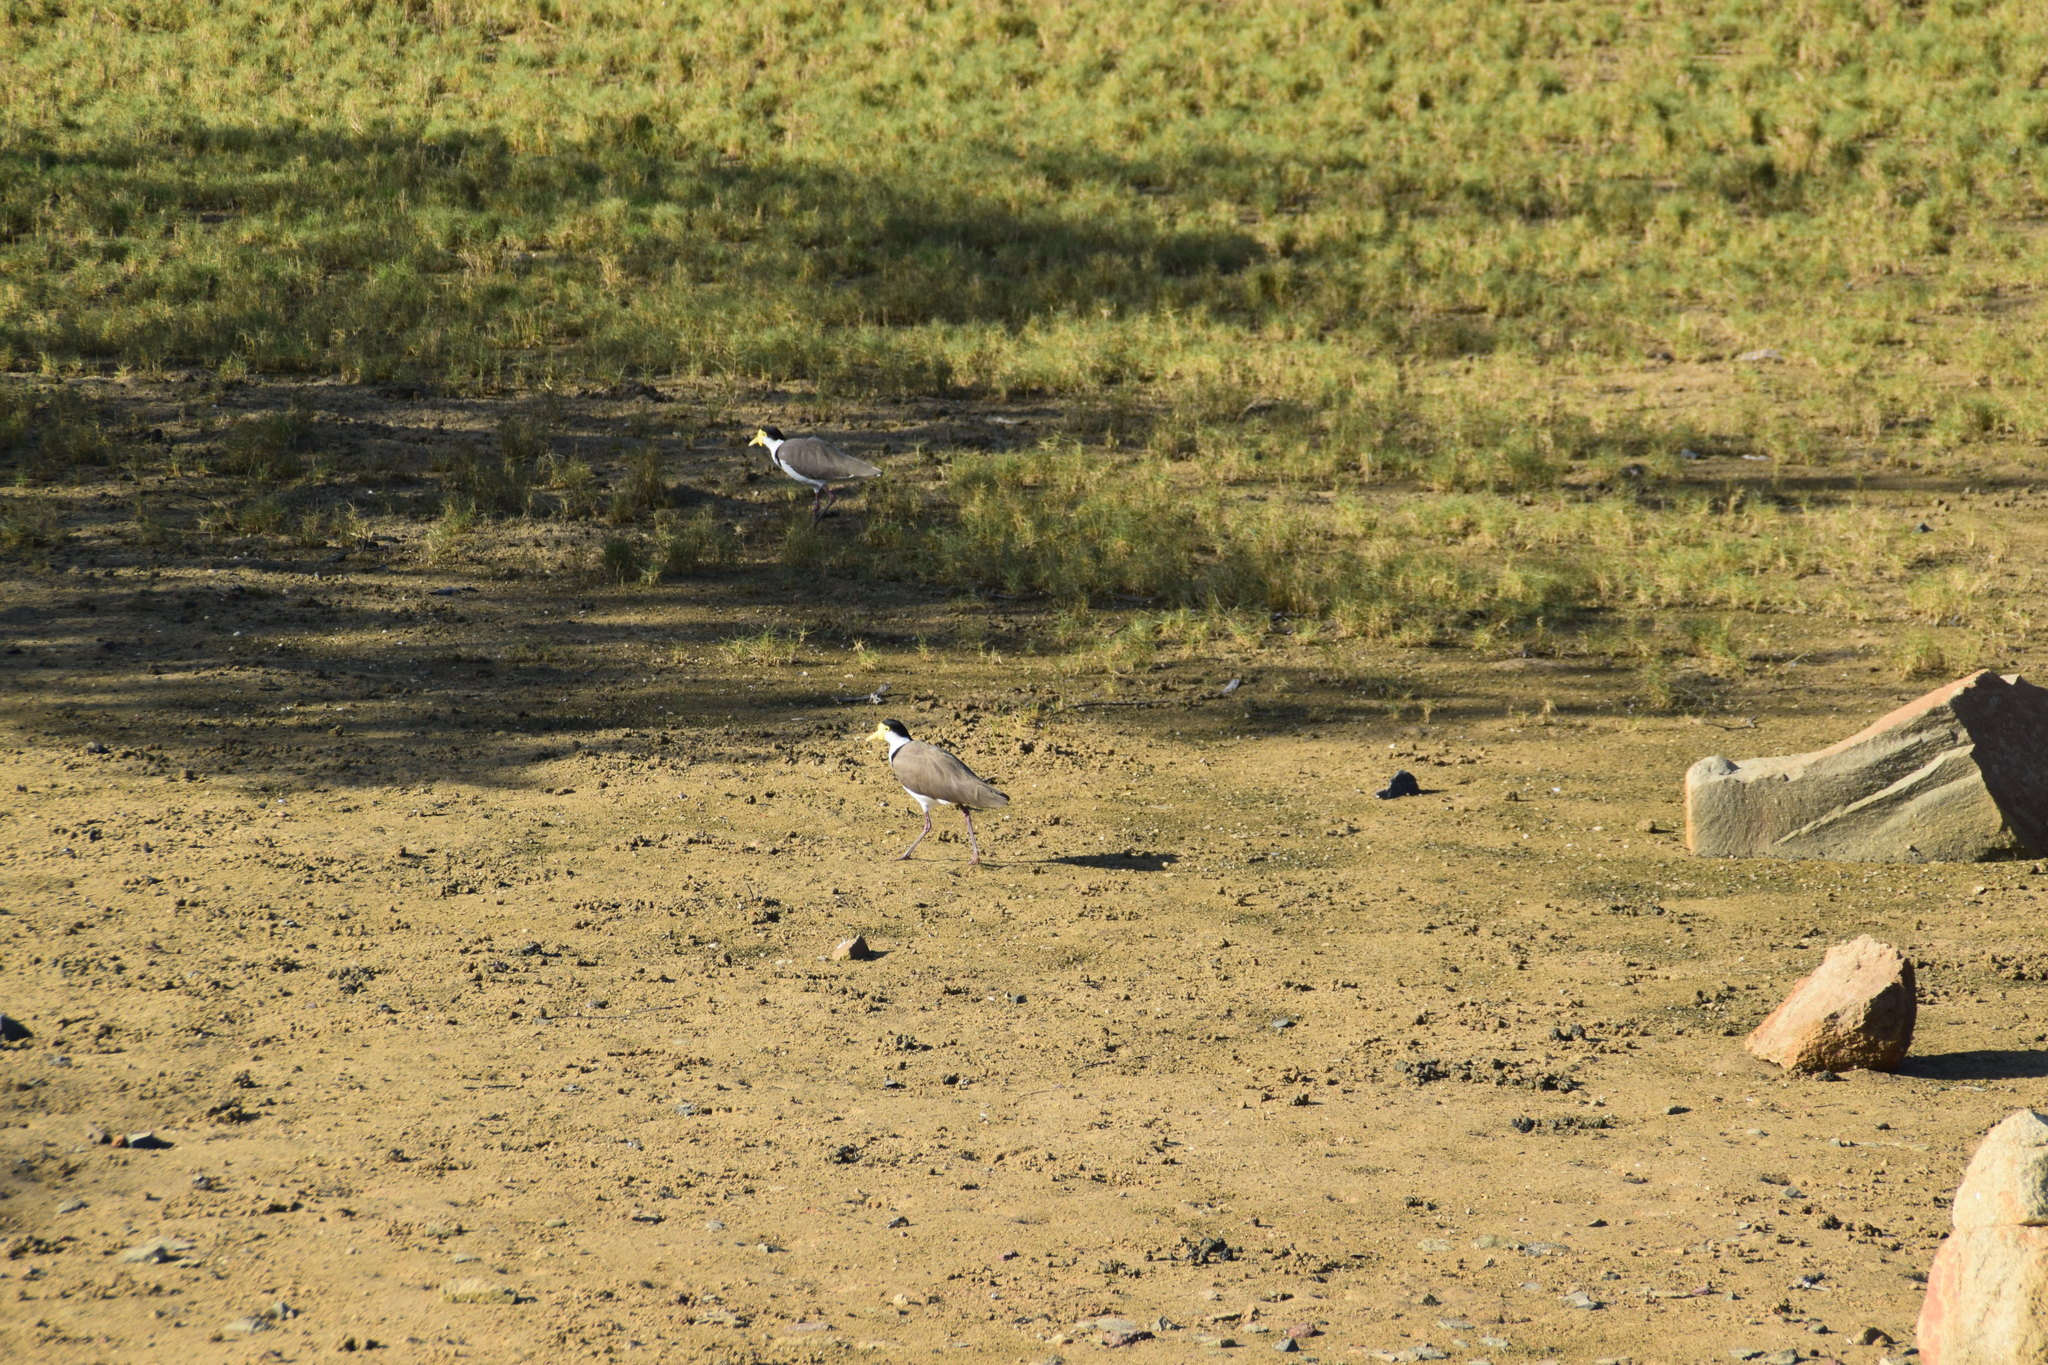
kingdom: Animalia
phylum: Chordata
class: Aves
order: Charadriiformes
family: Charadriidae
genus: Vanellus
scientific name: Vanellus miles
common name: Masked lapwing
